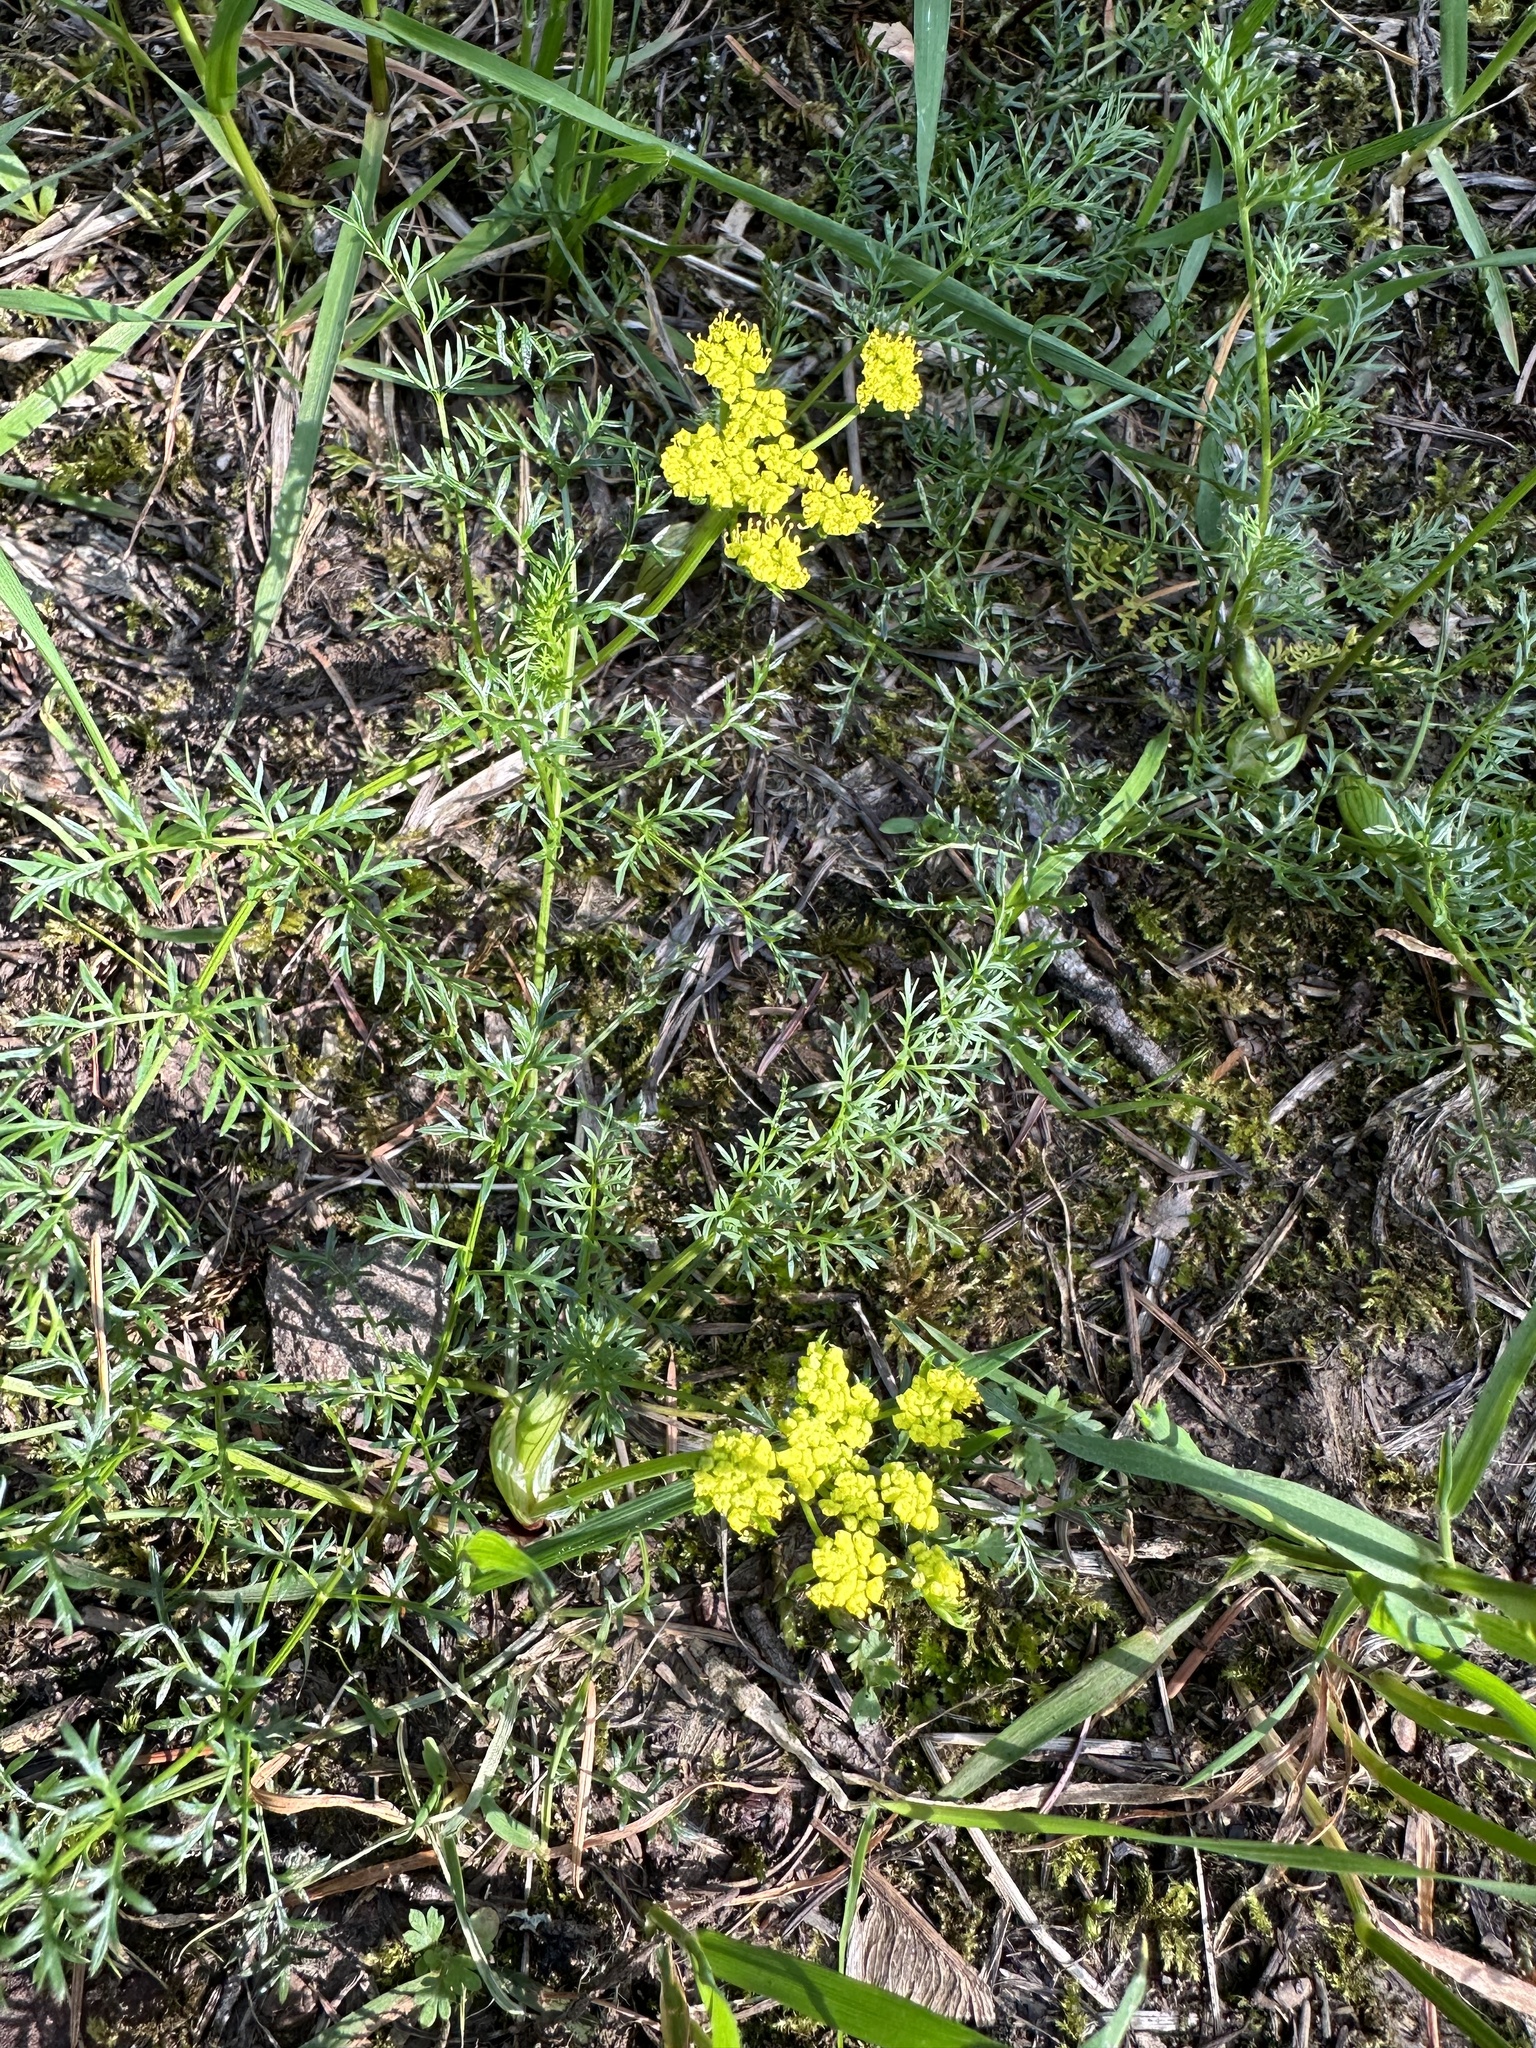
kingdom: Plantae
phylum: Tracheophyta
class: Magnoliopsida
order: Apiales
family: Apiaceae
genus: Lomatium
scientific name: Lomatium utriculatum
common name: Fine-leaf desert-parsley
